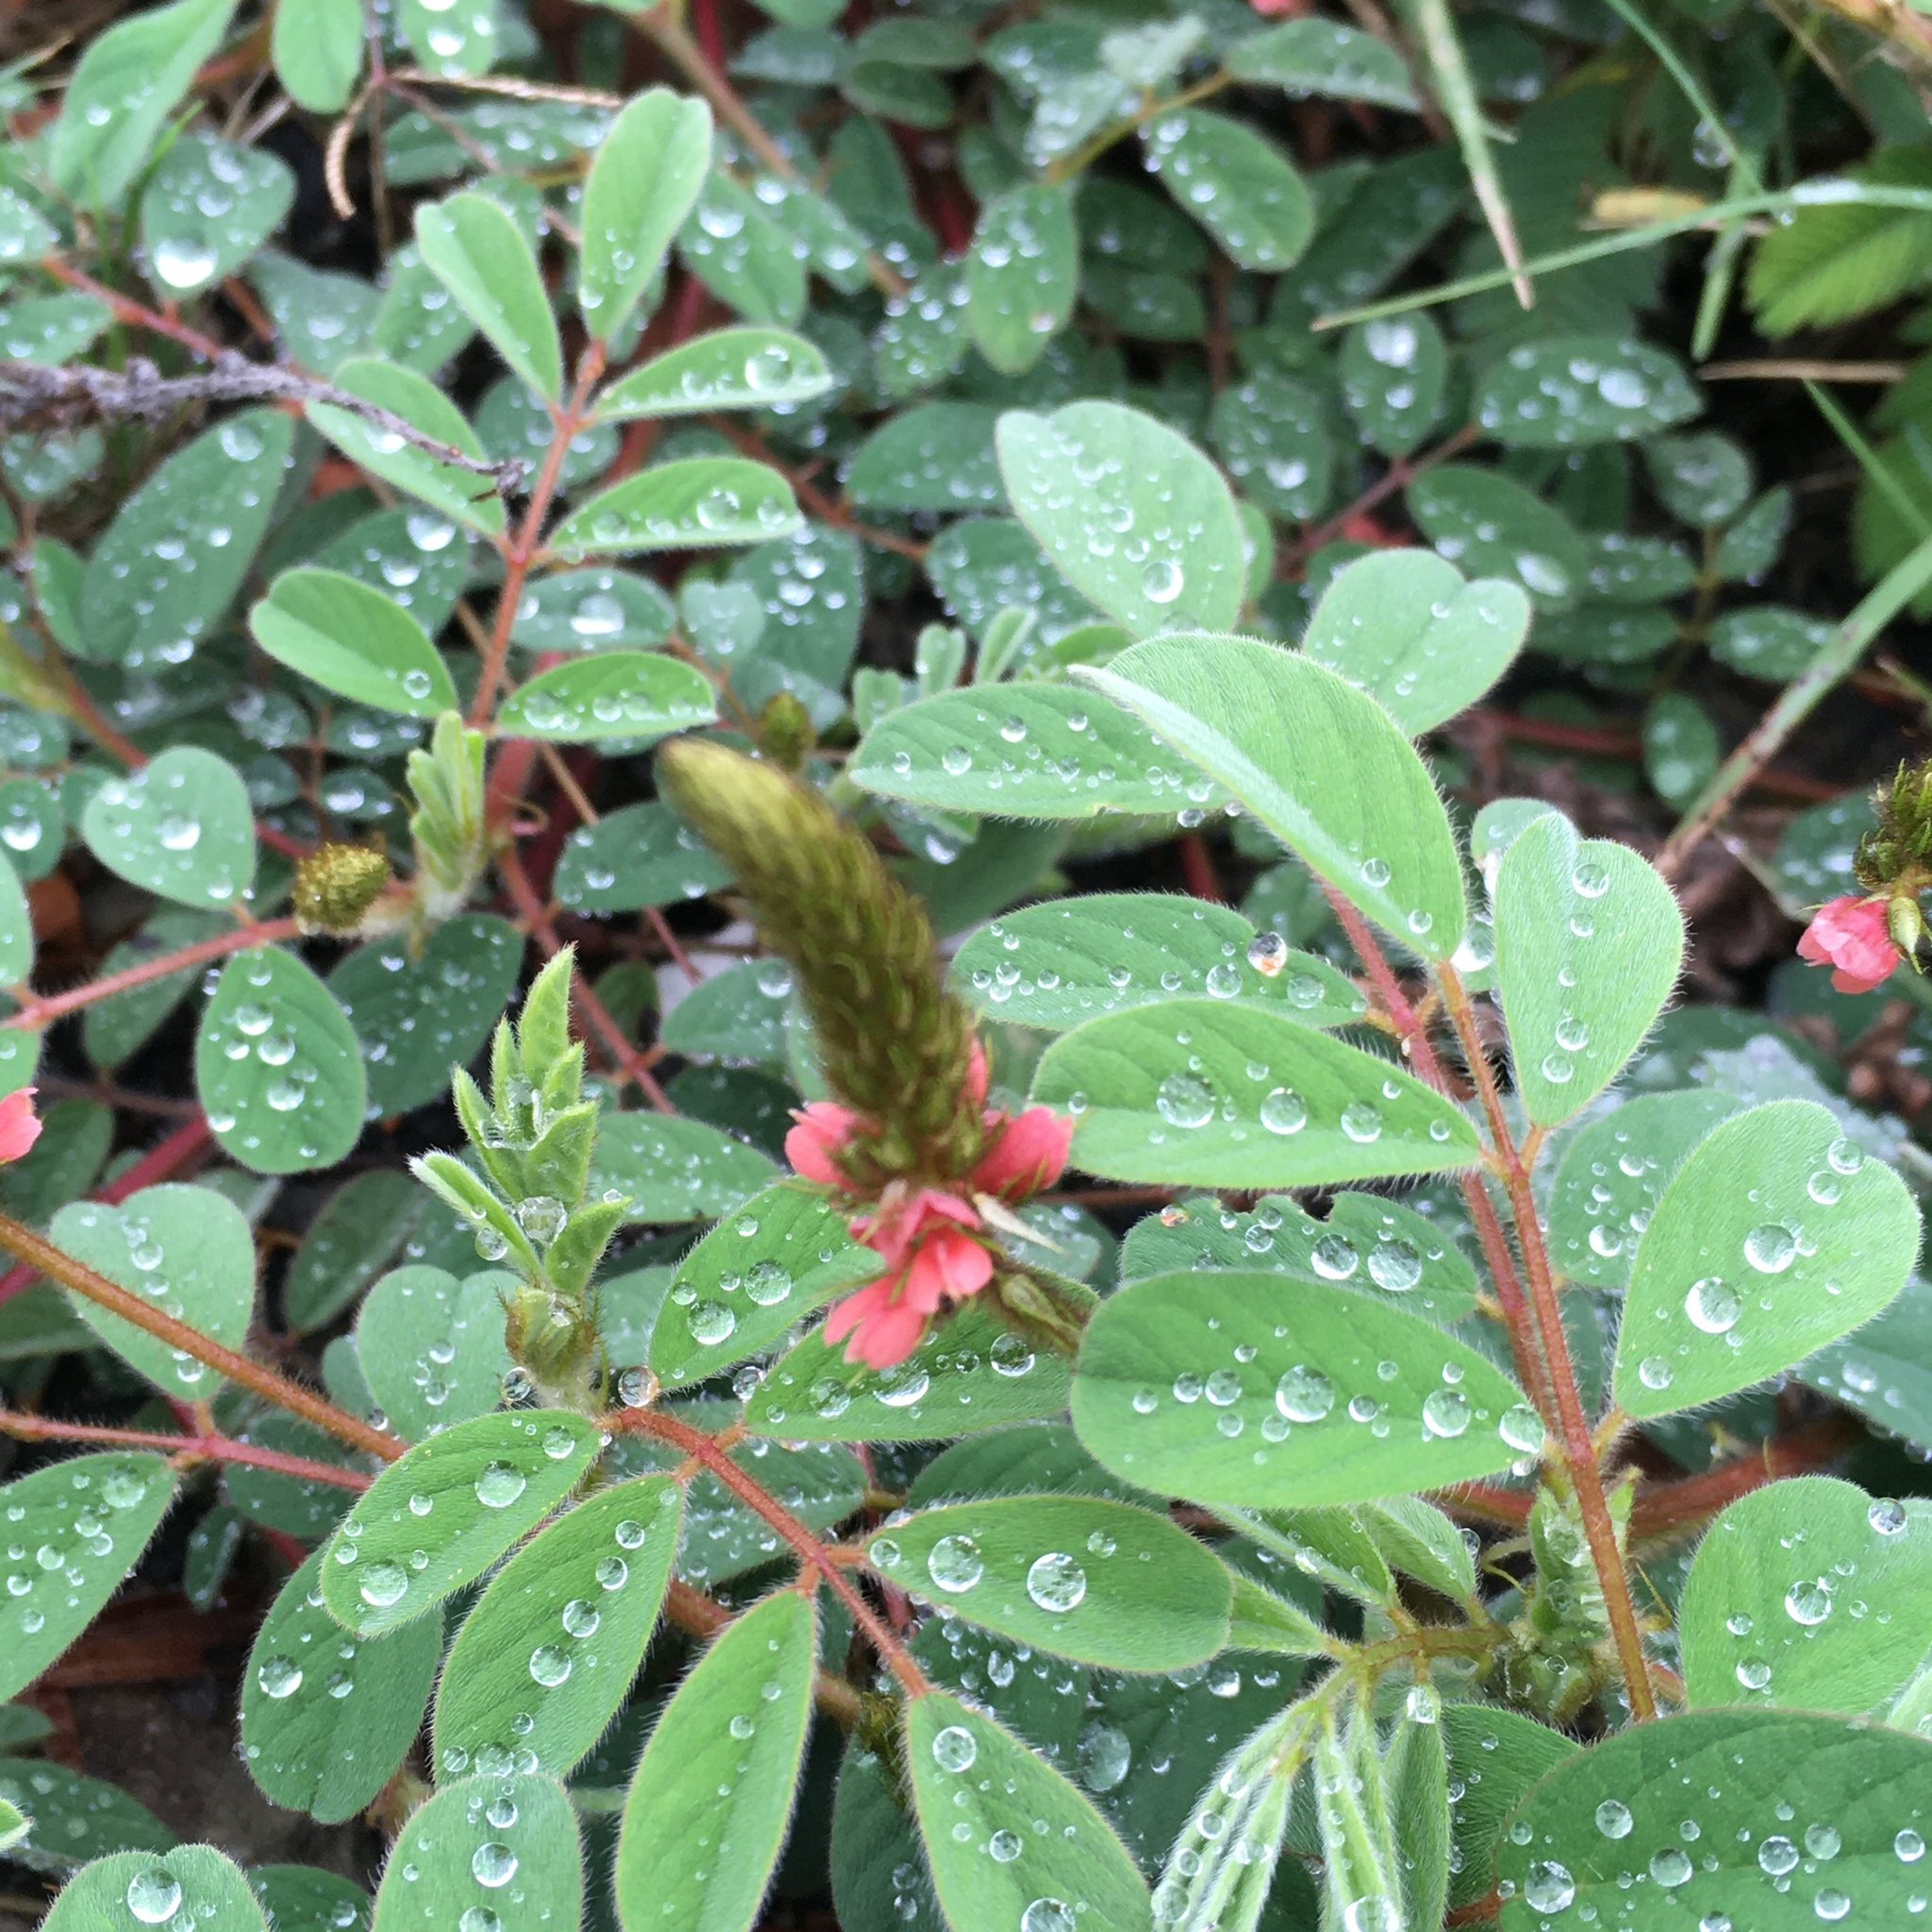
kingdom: Plantae
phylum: Tracheophyta
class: Magnoliopsida
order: Fabales
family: Fabaceae
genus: Indigofera
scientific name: Indigofera hirsuta
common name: Hairy indigo
